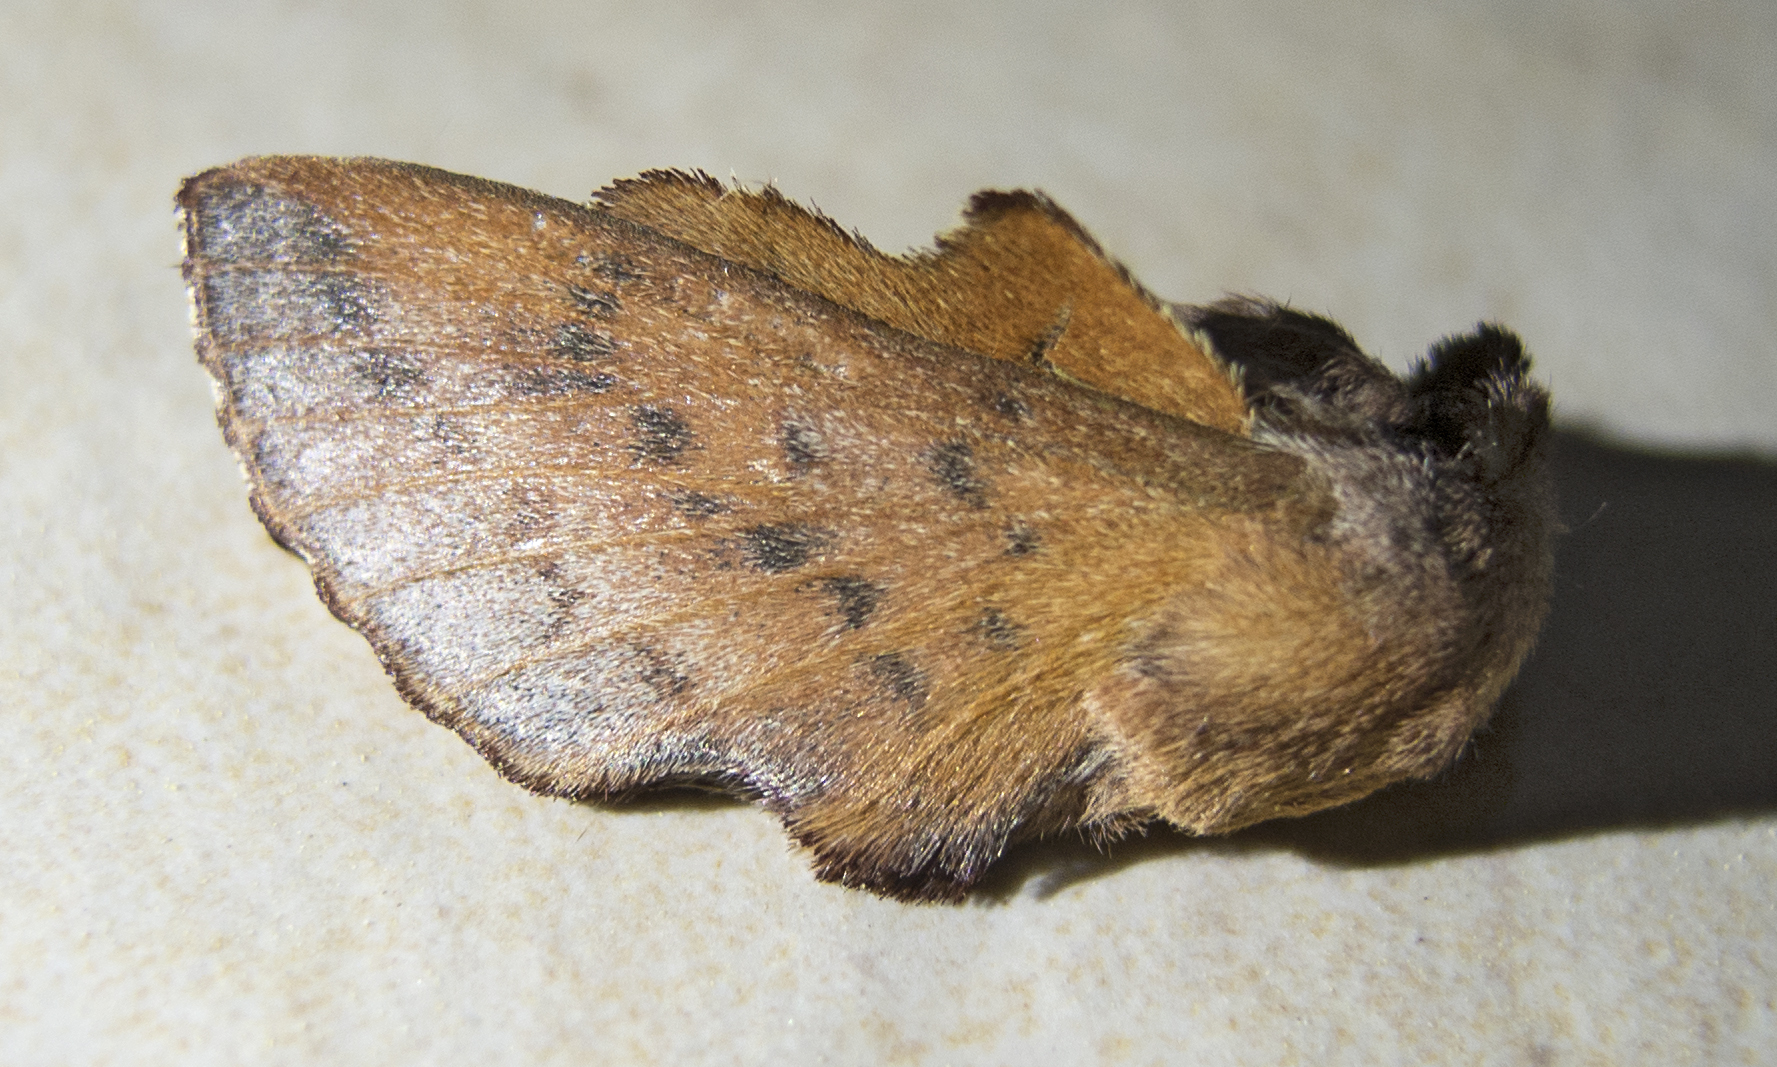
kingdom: Animalia
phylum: Arthropoda
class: Insecta
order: Lepidoptera
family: Lasiocampidae
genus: Phyllodesma
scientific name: Phyllodesma tremulifolia
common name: Aspen lappet
